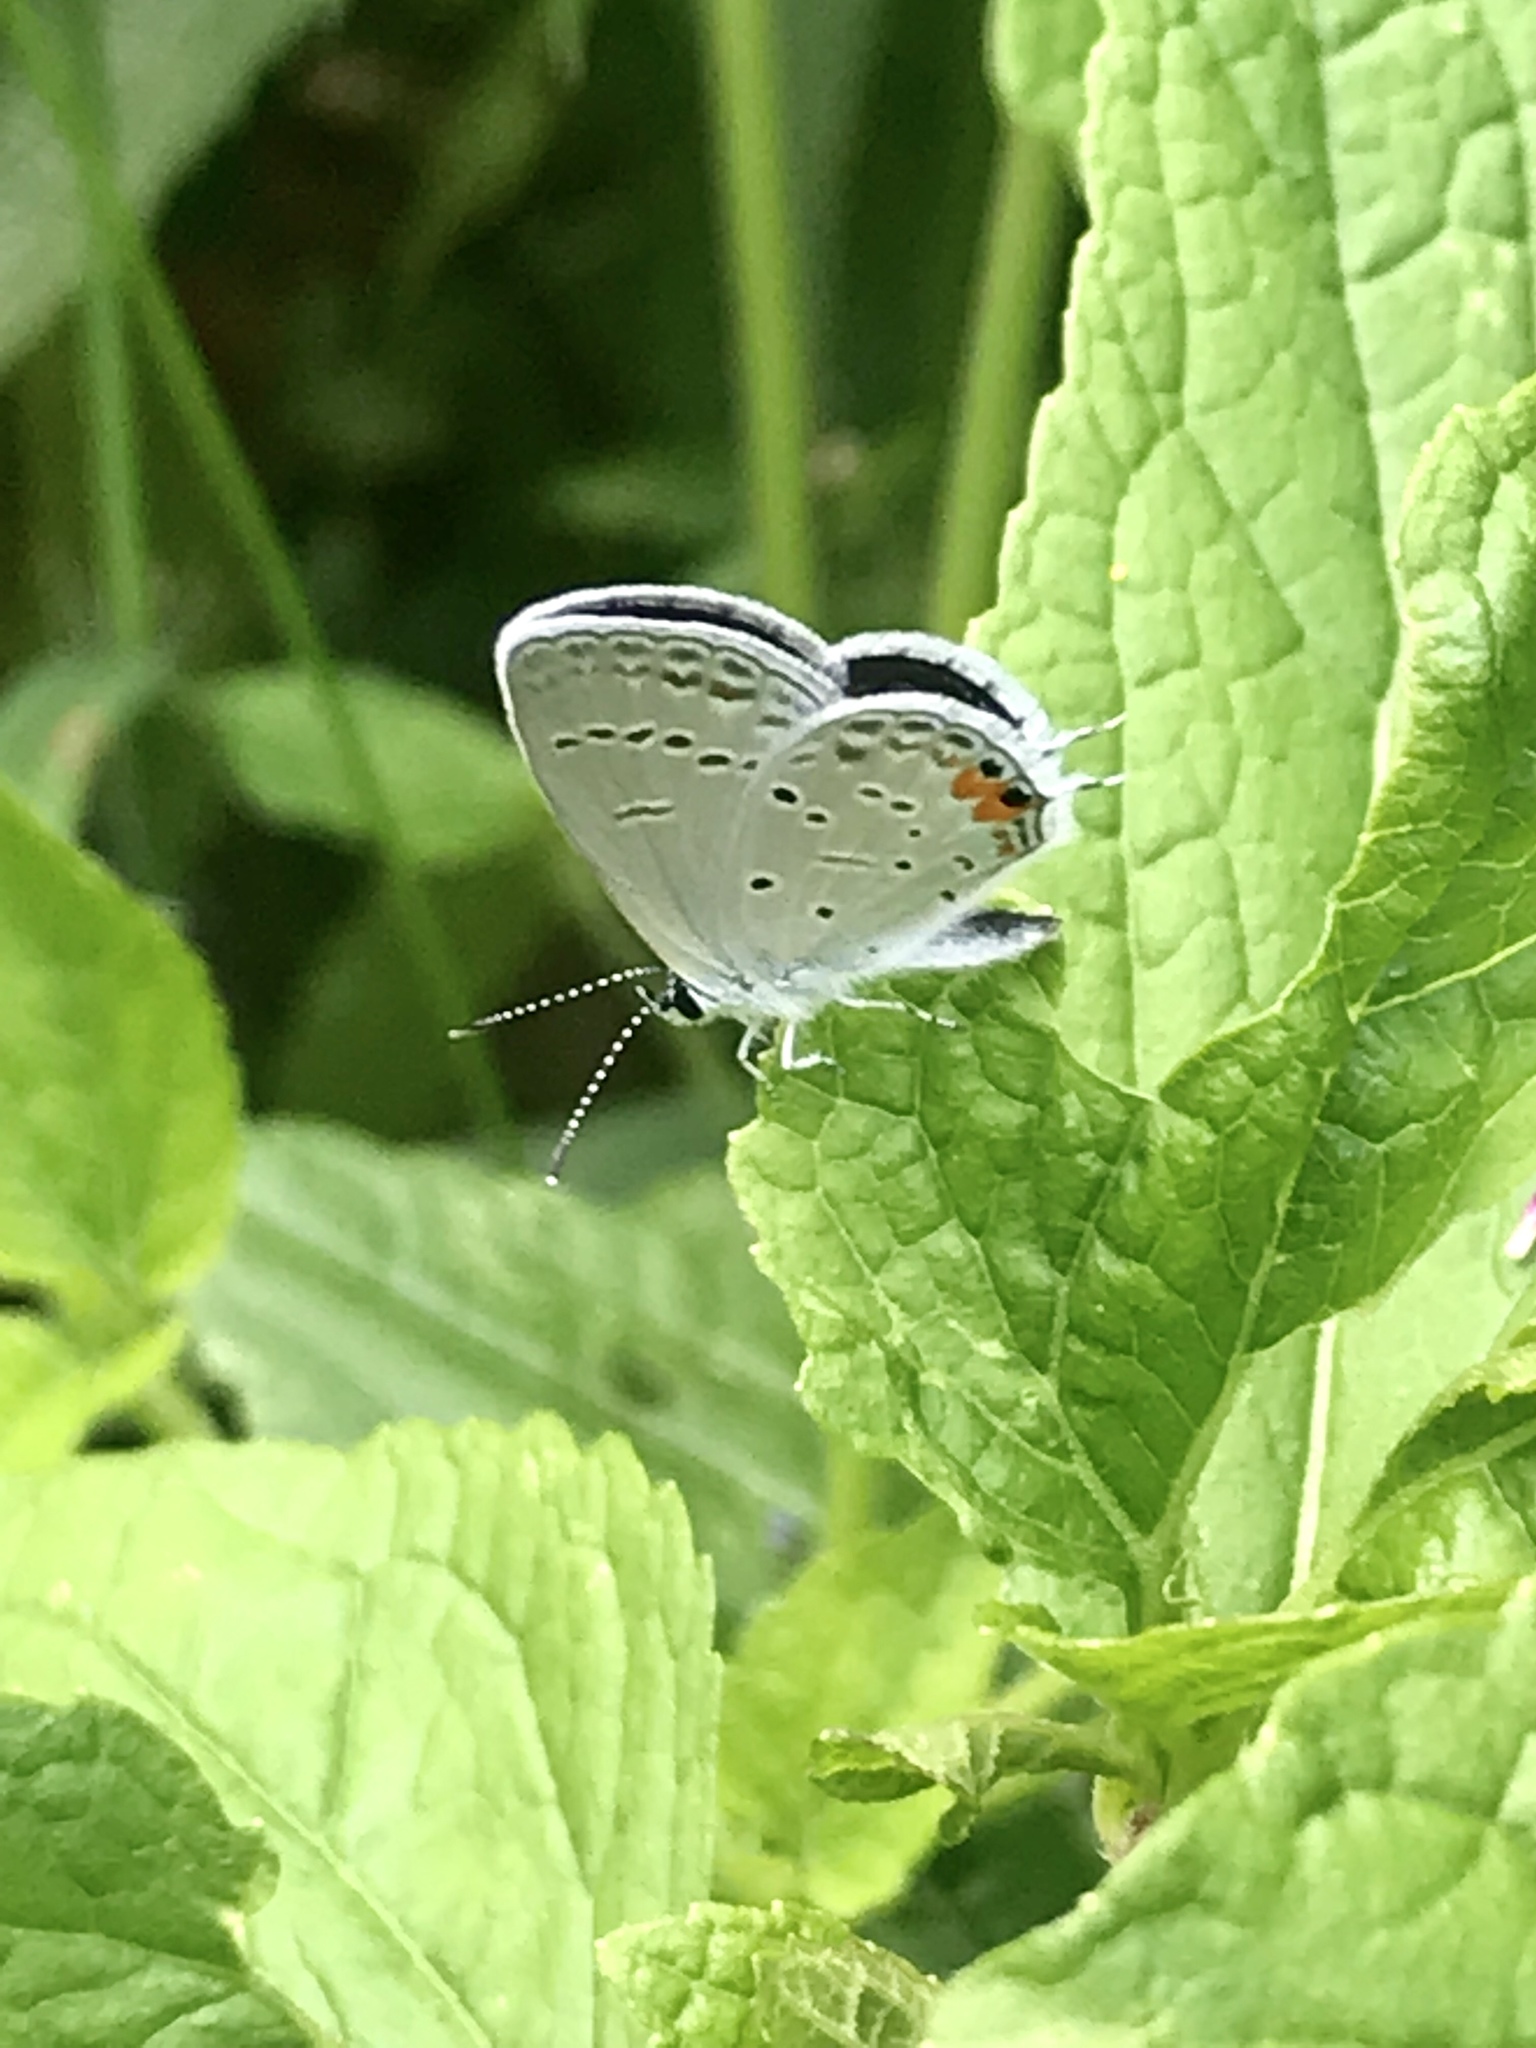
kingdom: Animalia
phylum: Arthropoda
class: Insecta
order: Lepidoptera
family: Lycaenidae
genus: Elkalyce
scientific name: Elkalyce comyntas
